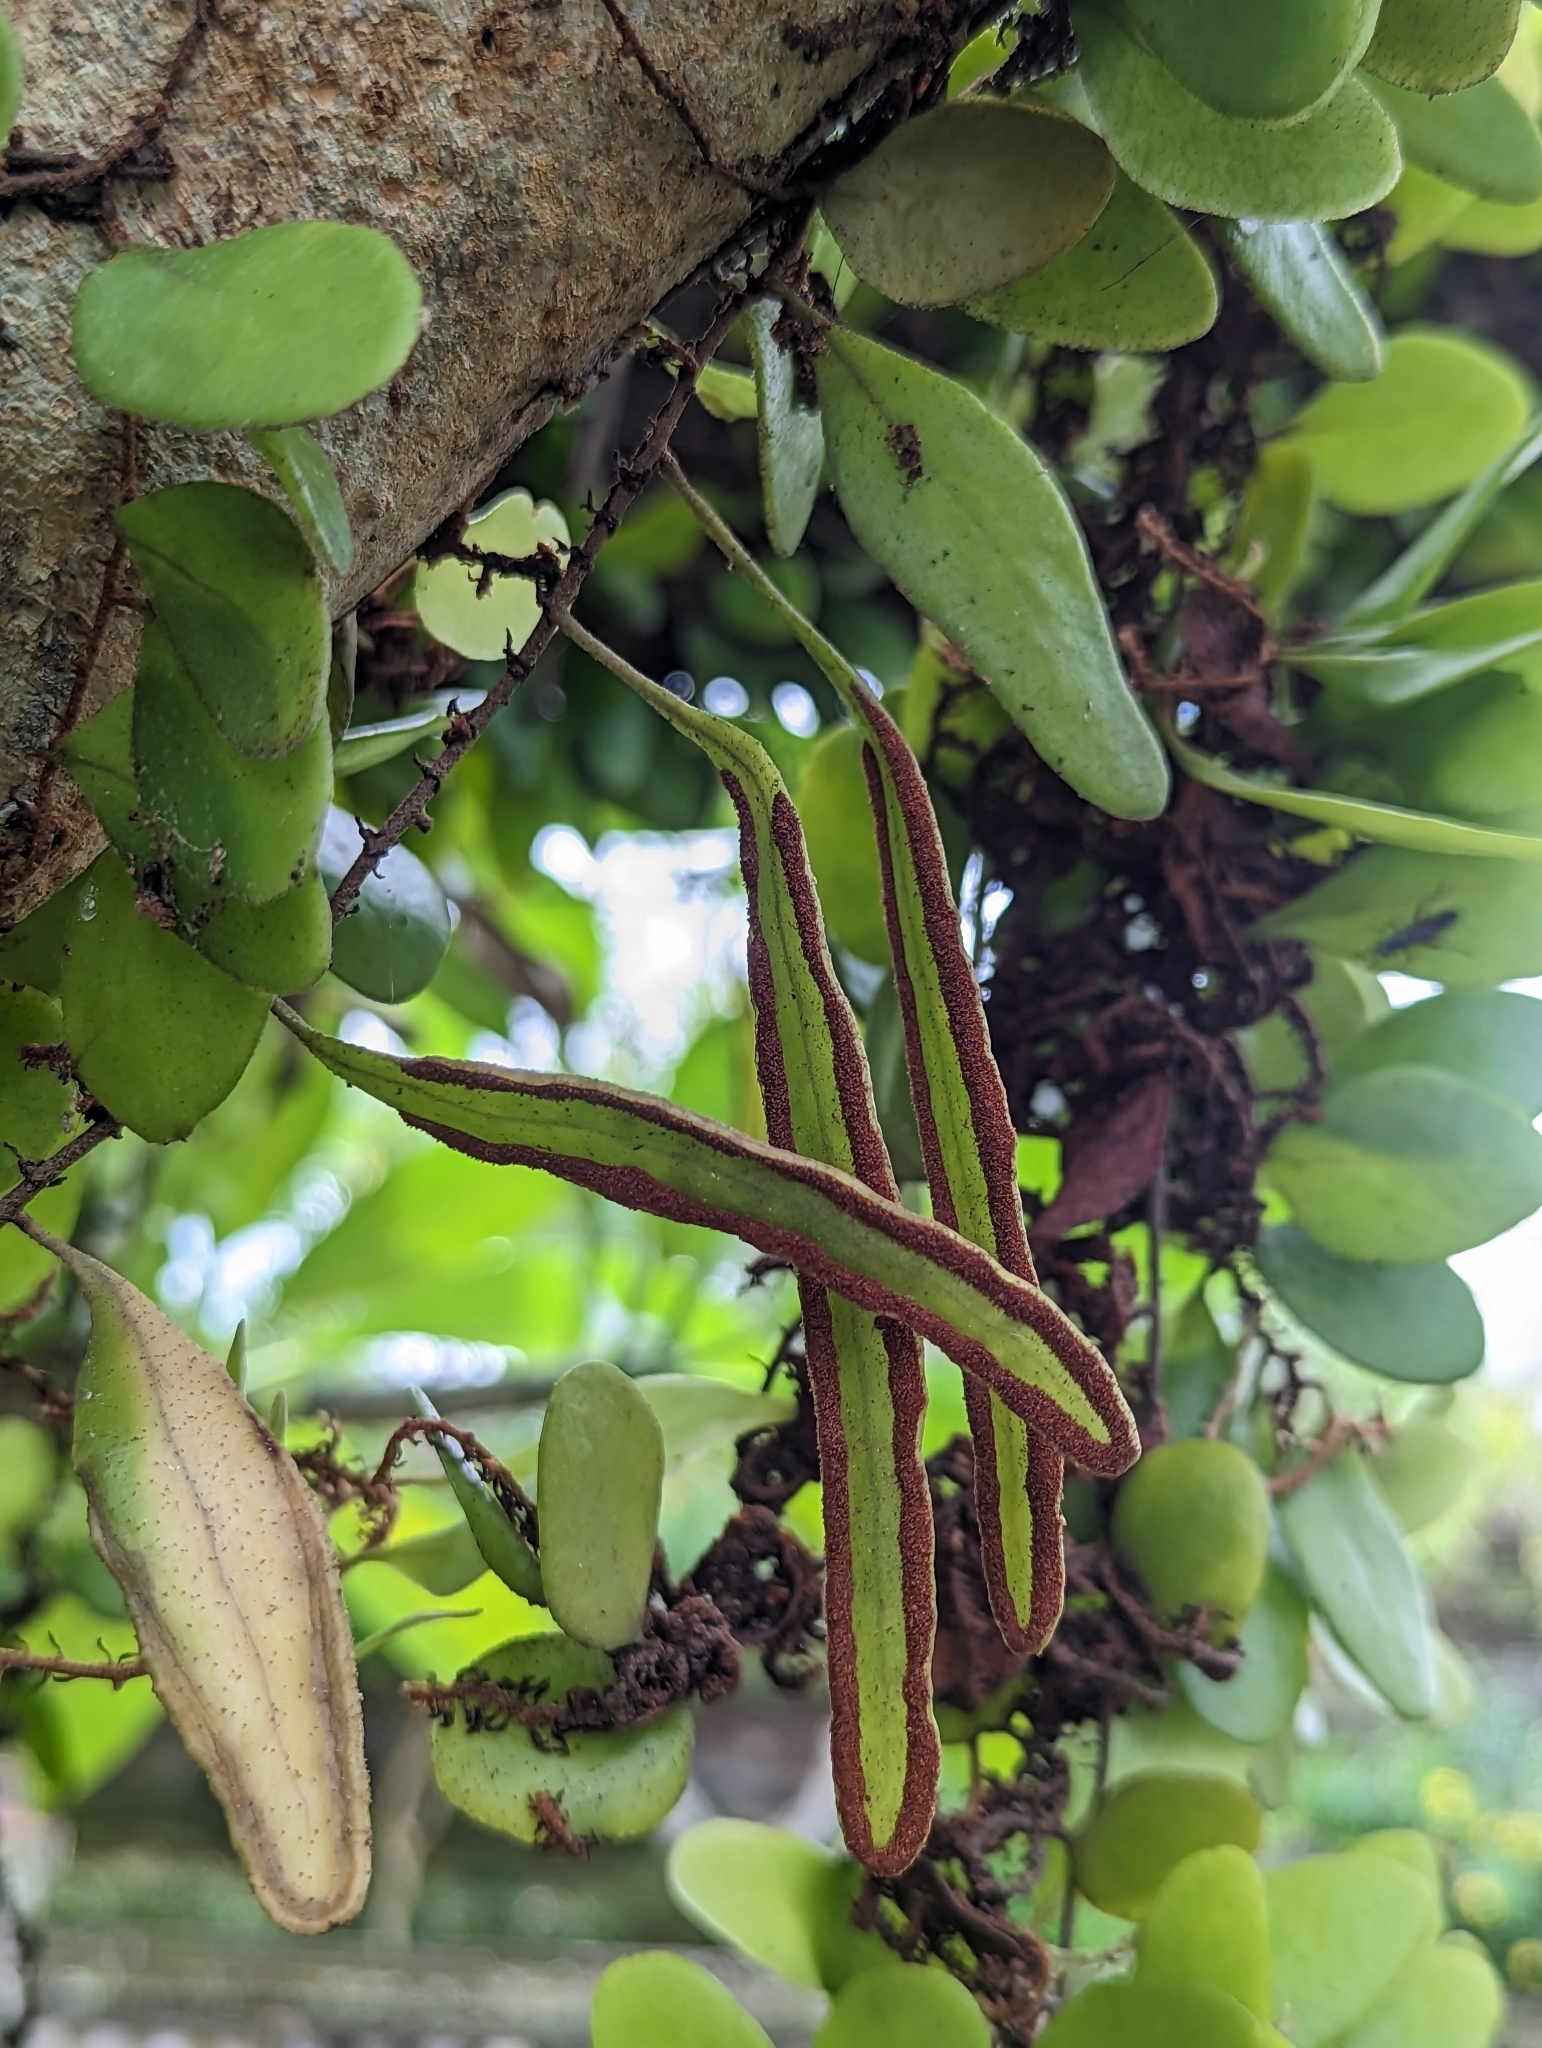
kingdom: Plantae
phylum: Tracheophyta
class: Polypodiopsida
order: Polypodiales
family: Polypodiaceae
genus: Pyrrosia
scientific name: Pyrrosia piloselloides
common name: Epiphytic creeping fern
